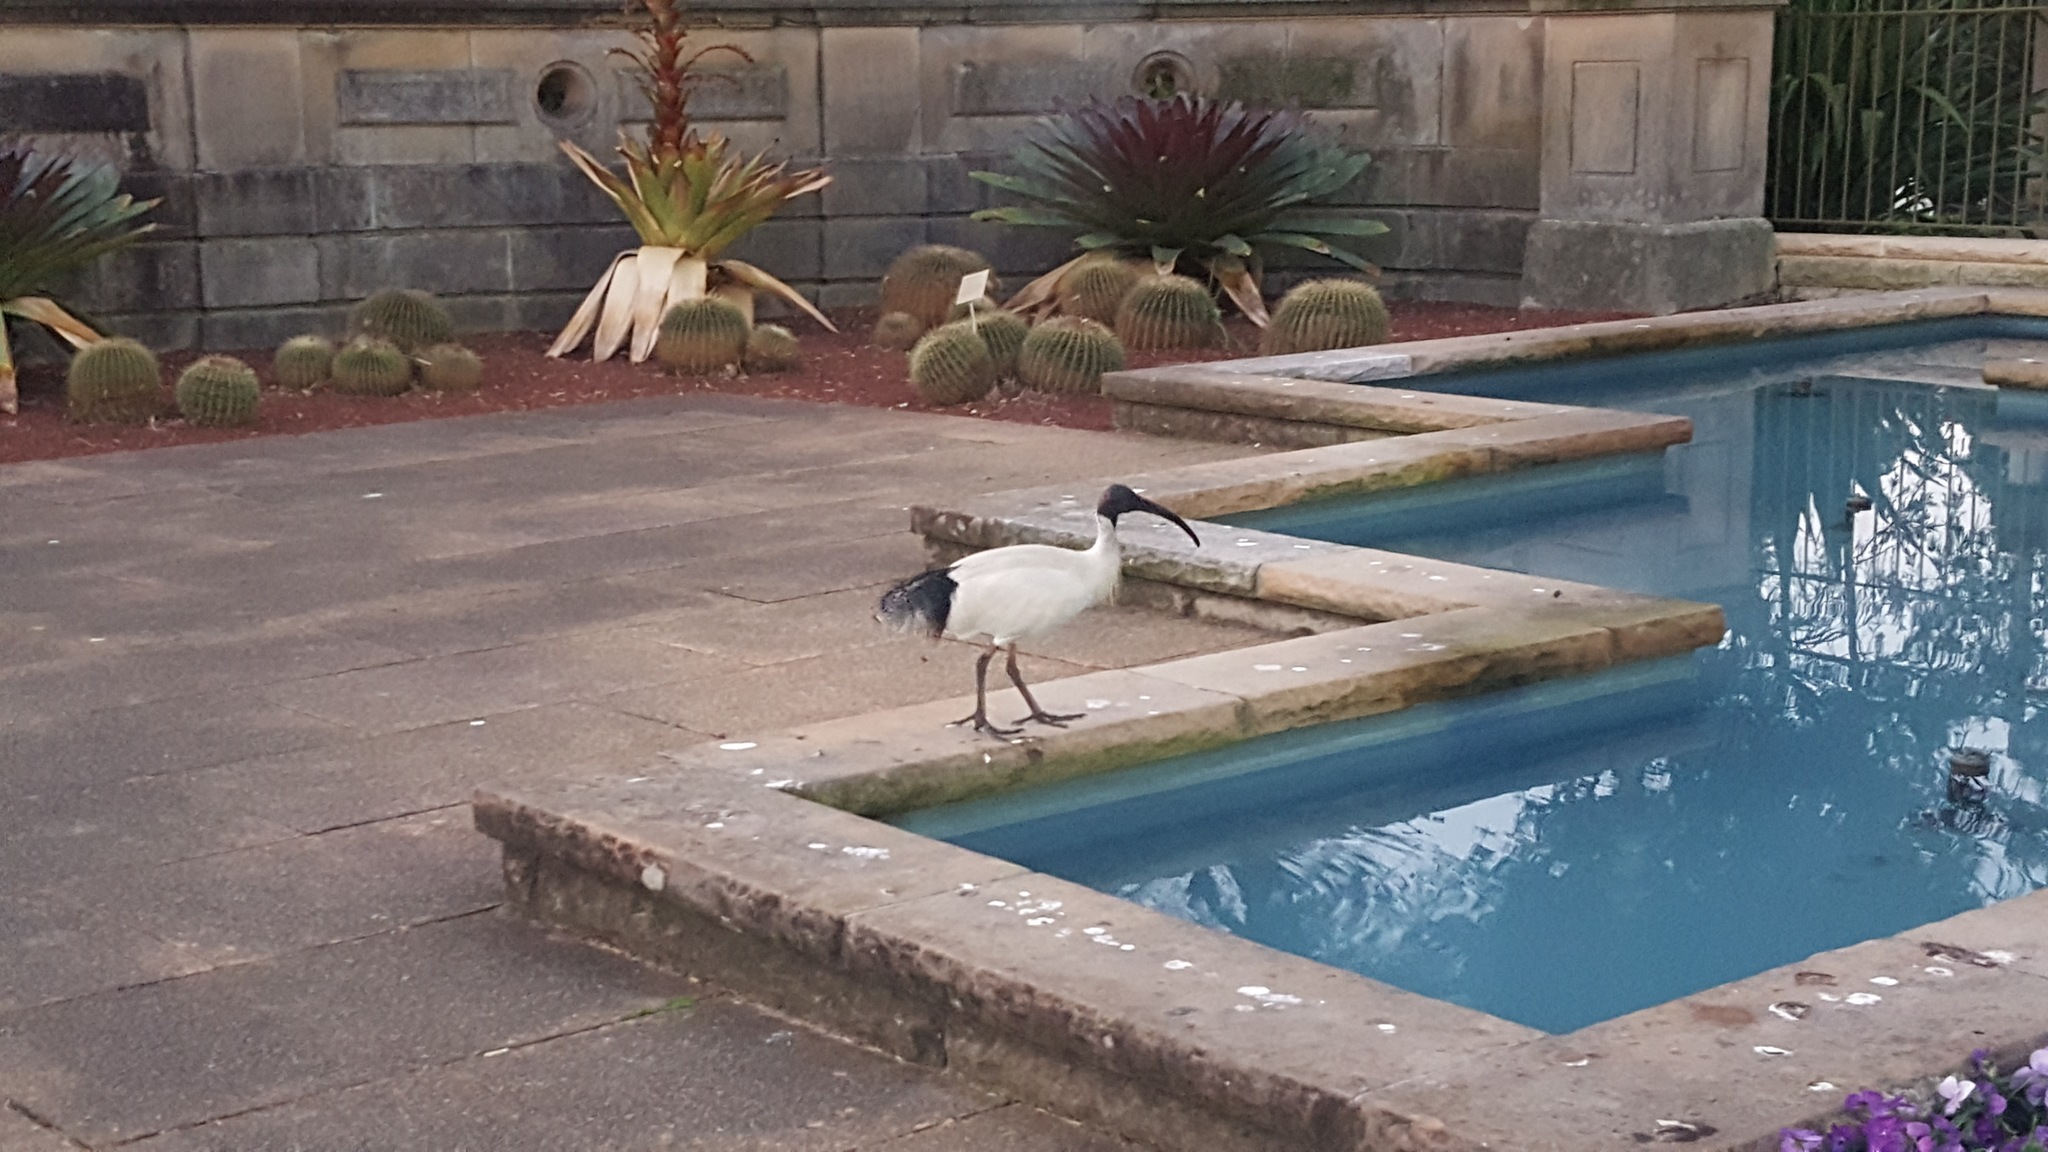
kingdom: Animalia
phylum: Chordata
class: Aves
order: Pelecaniformes
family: Threskiornithidae
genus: Threskiornis
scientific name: Threskiornis molucca
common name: Australian white ibis
